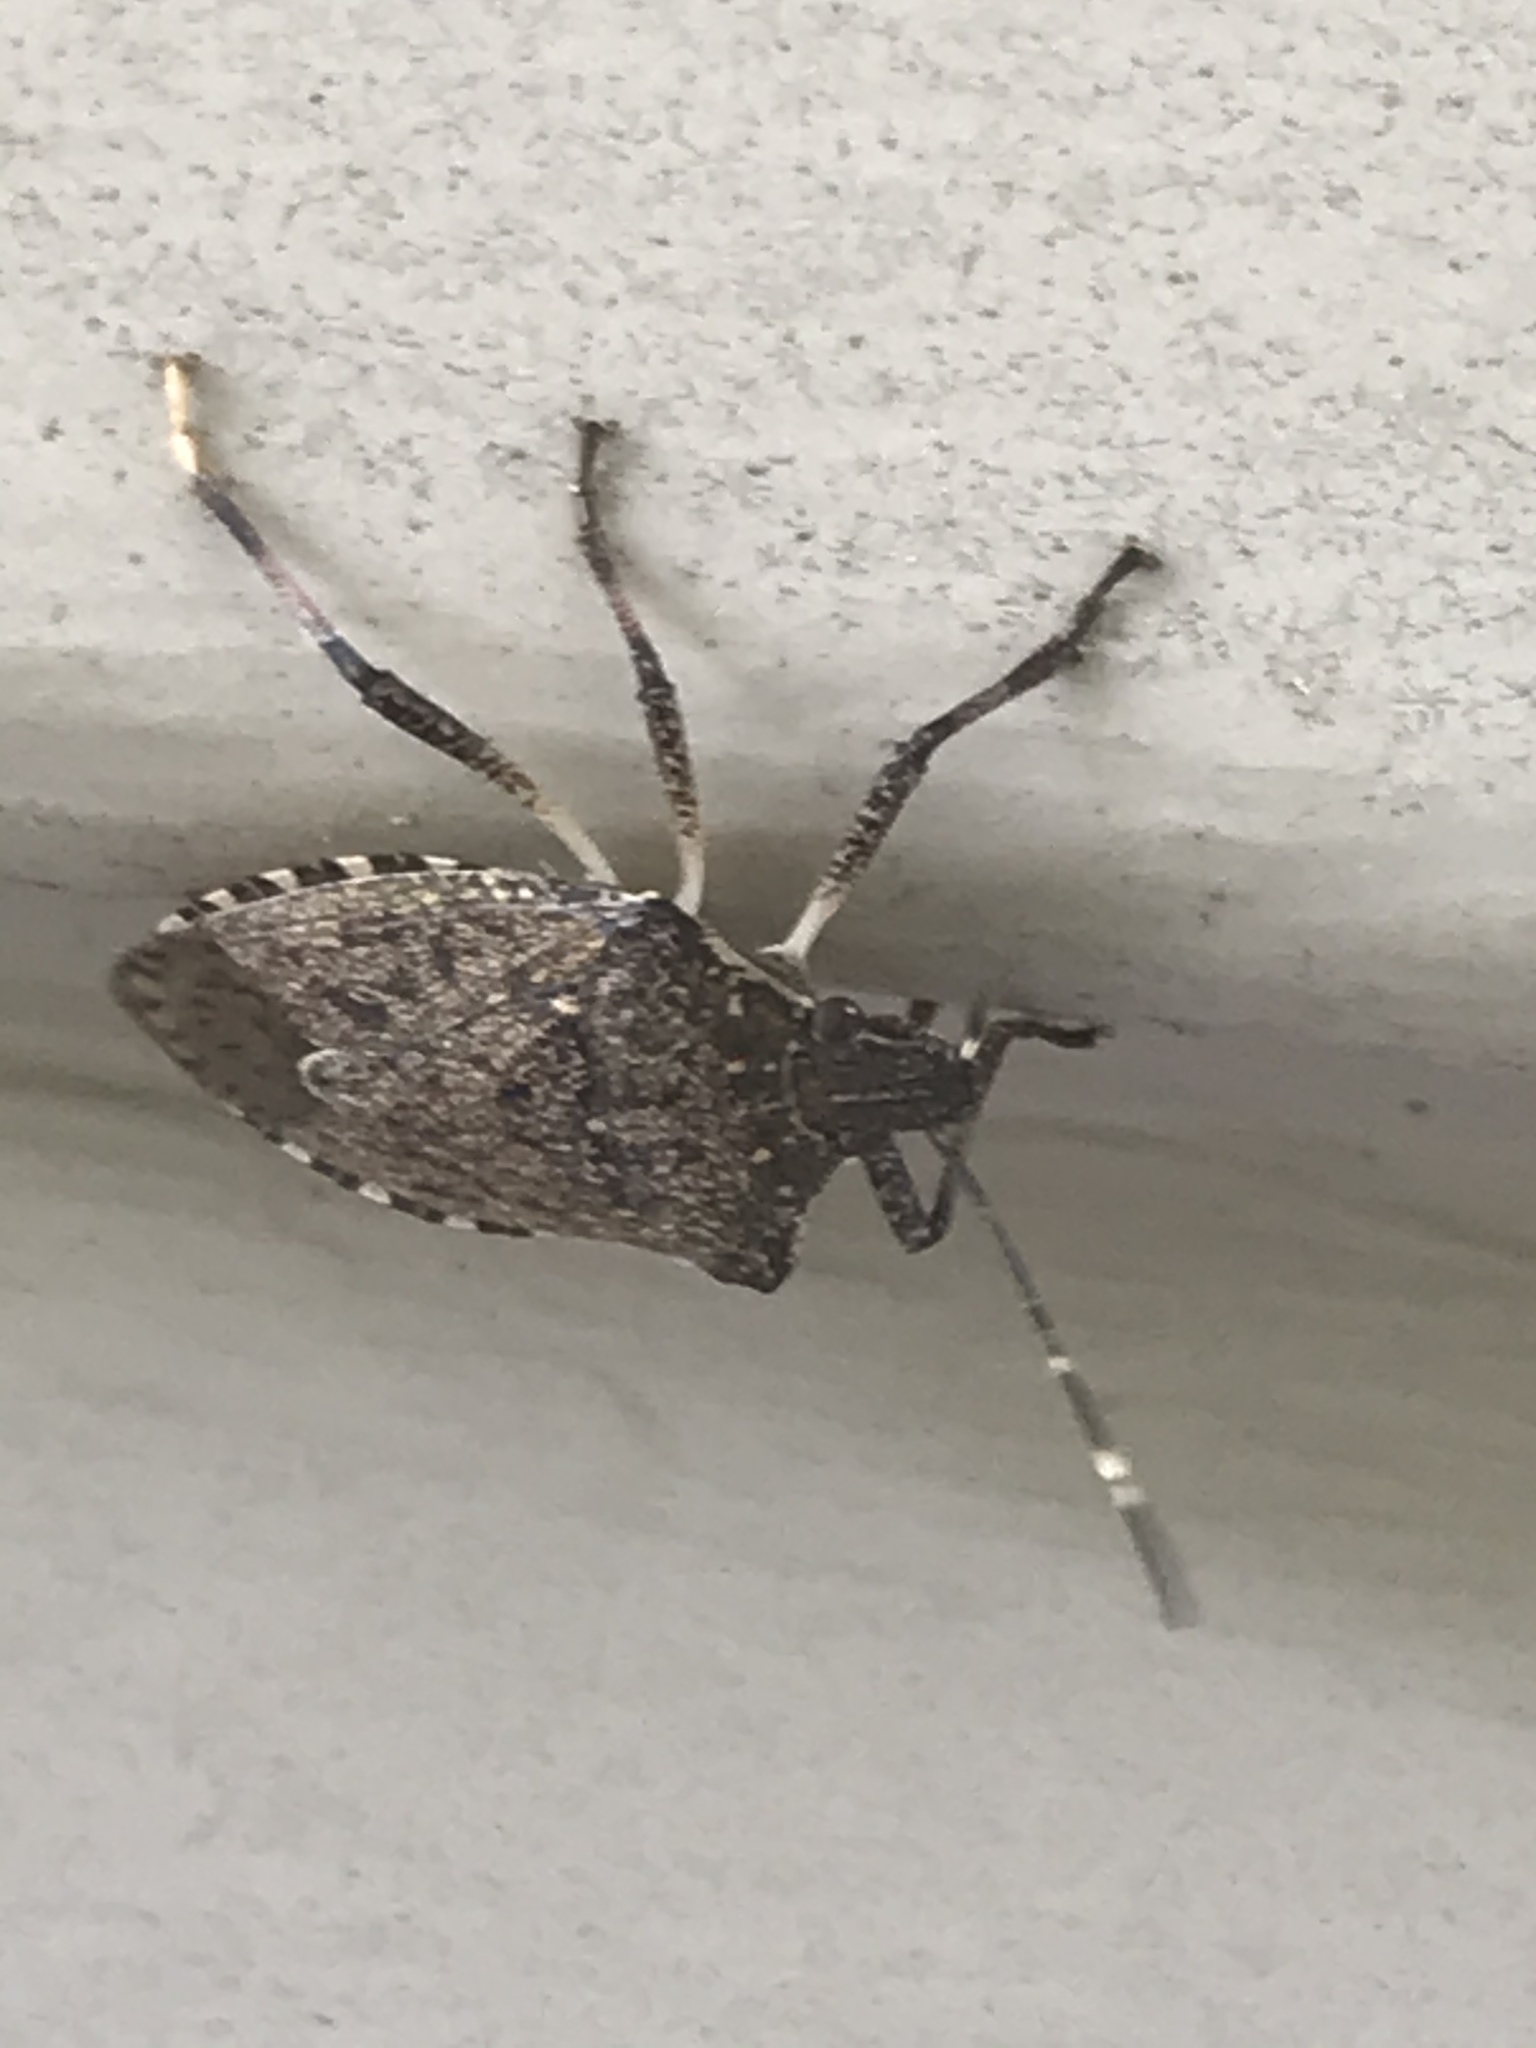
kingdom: Animalia
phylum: Arthropoda
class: Insecta
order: Hemiptera
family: Pentatomidae
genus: Halyomorpha
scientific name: Halyomorpha halys
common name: Brown marmorated stink bug
